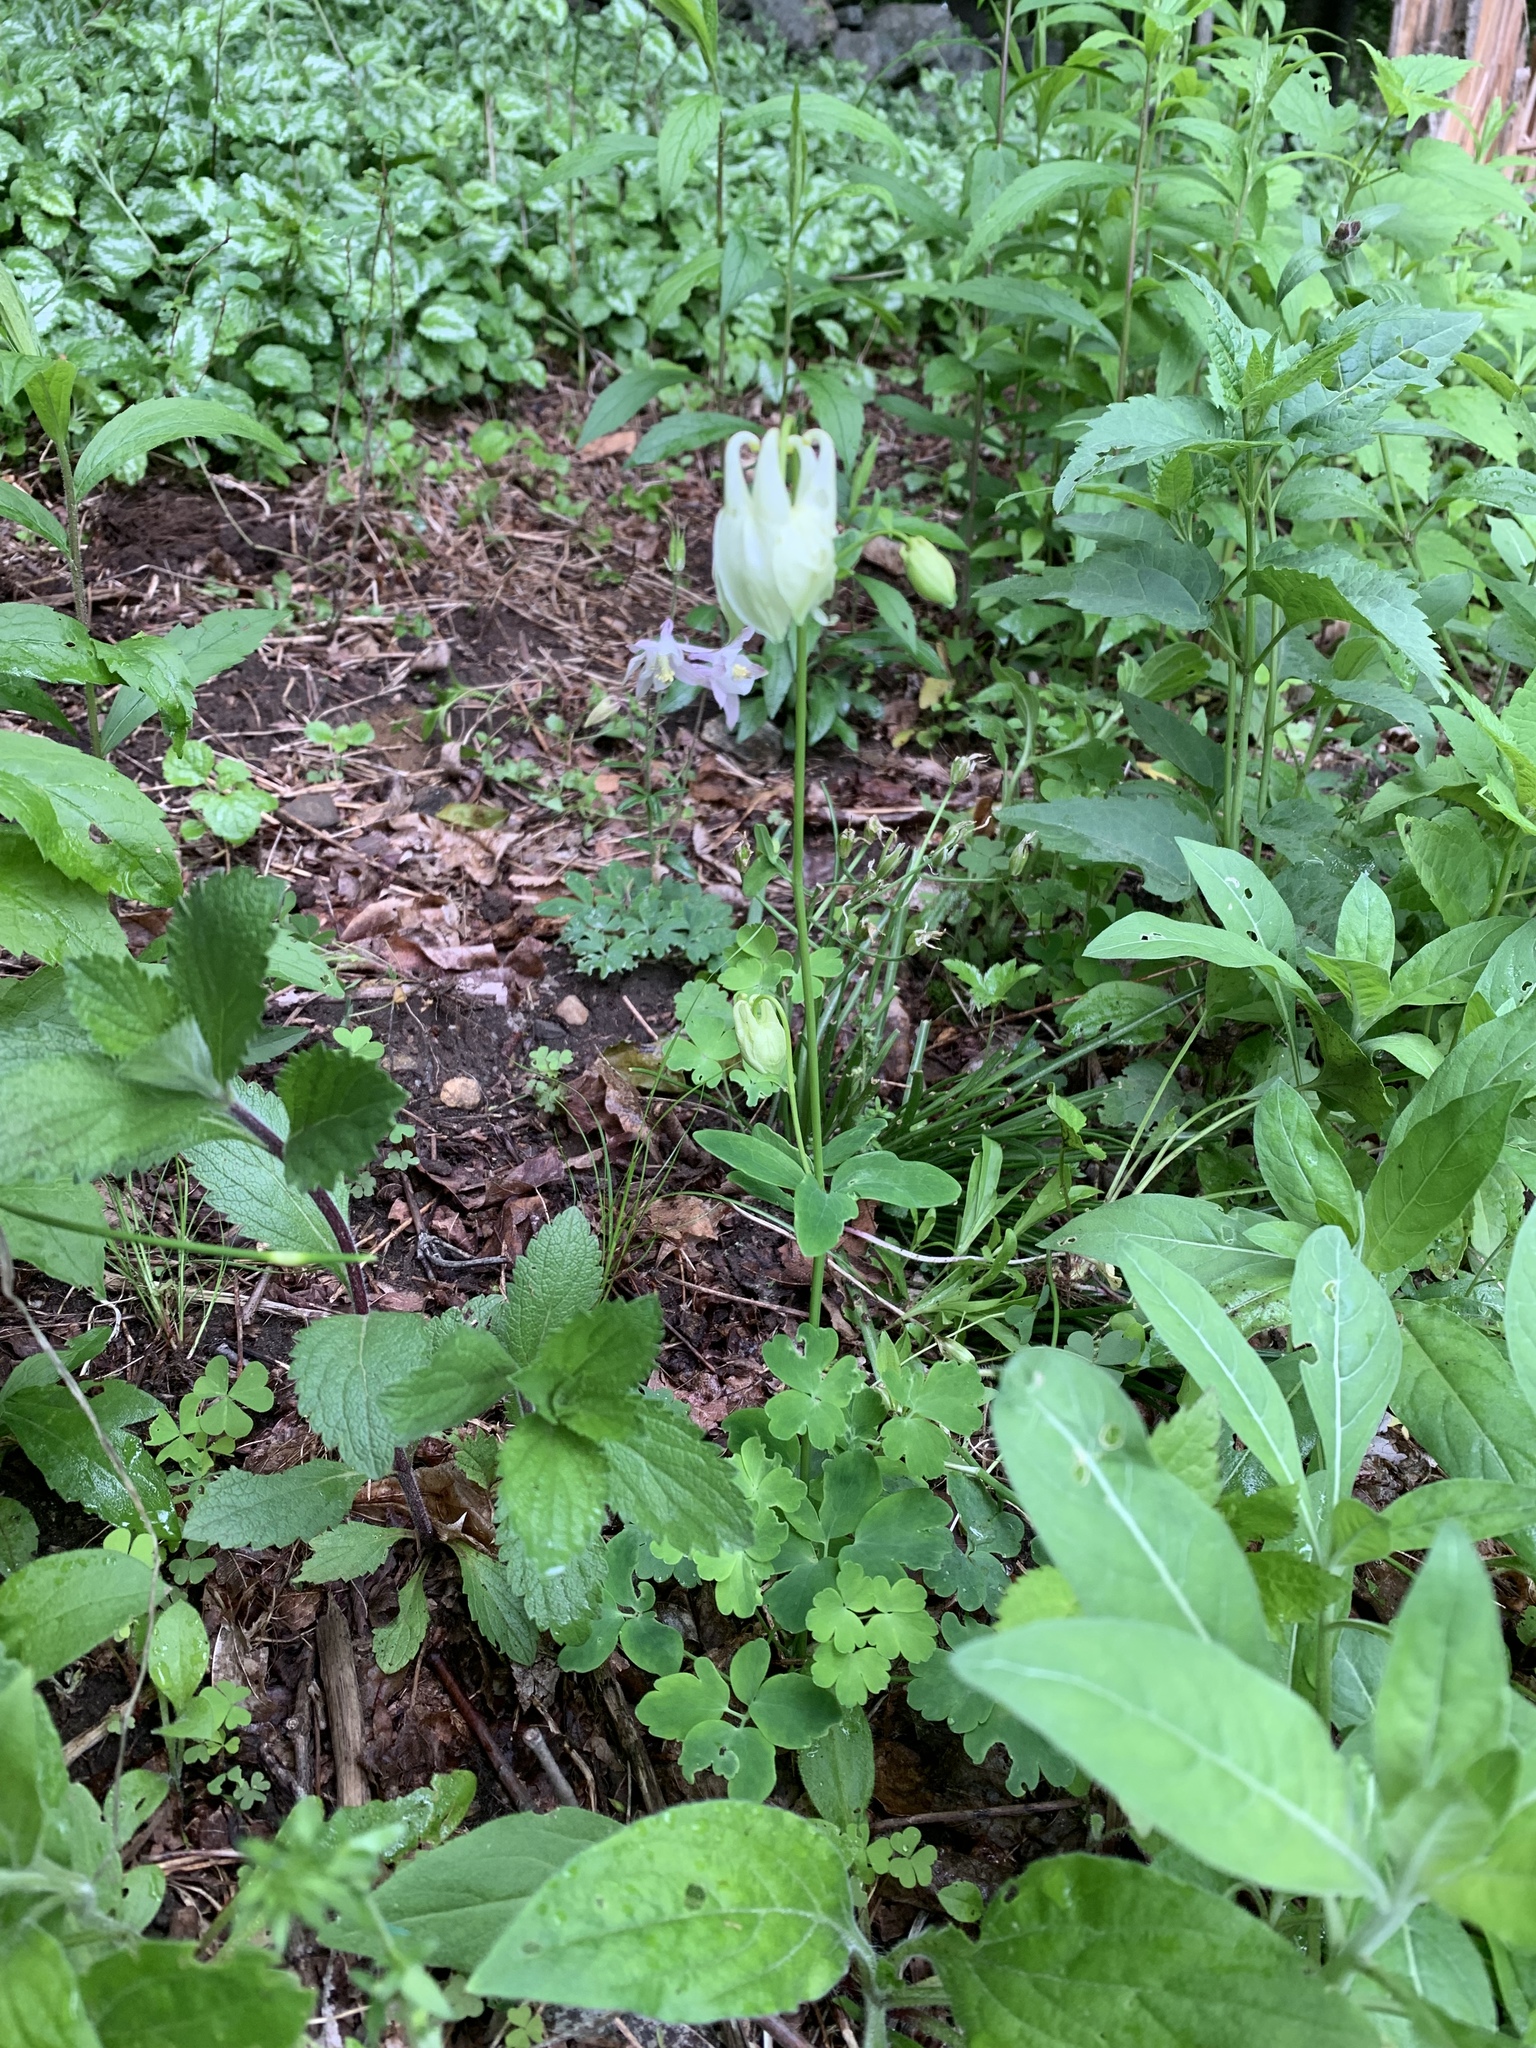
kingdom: Plantae
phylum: Tracheophyta
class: Magnoliopsida
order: Ranunculales
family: Ranunculaceae
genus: Aquilegia
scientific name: Aquilegia vulgaris
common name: Columbine
